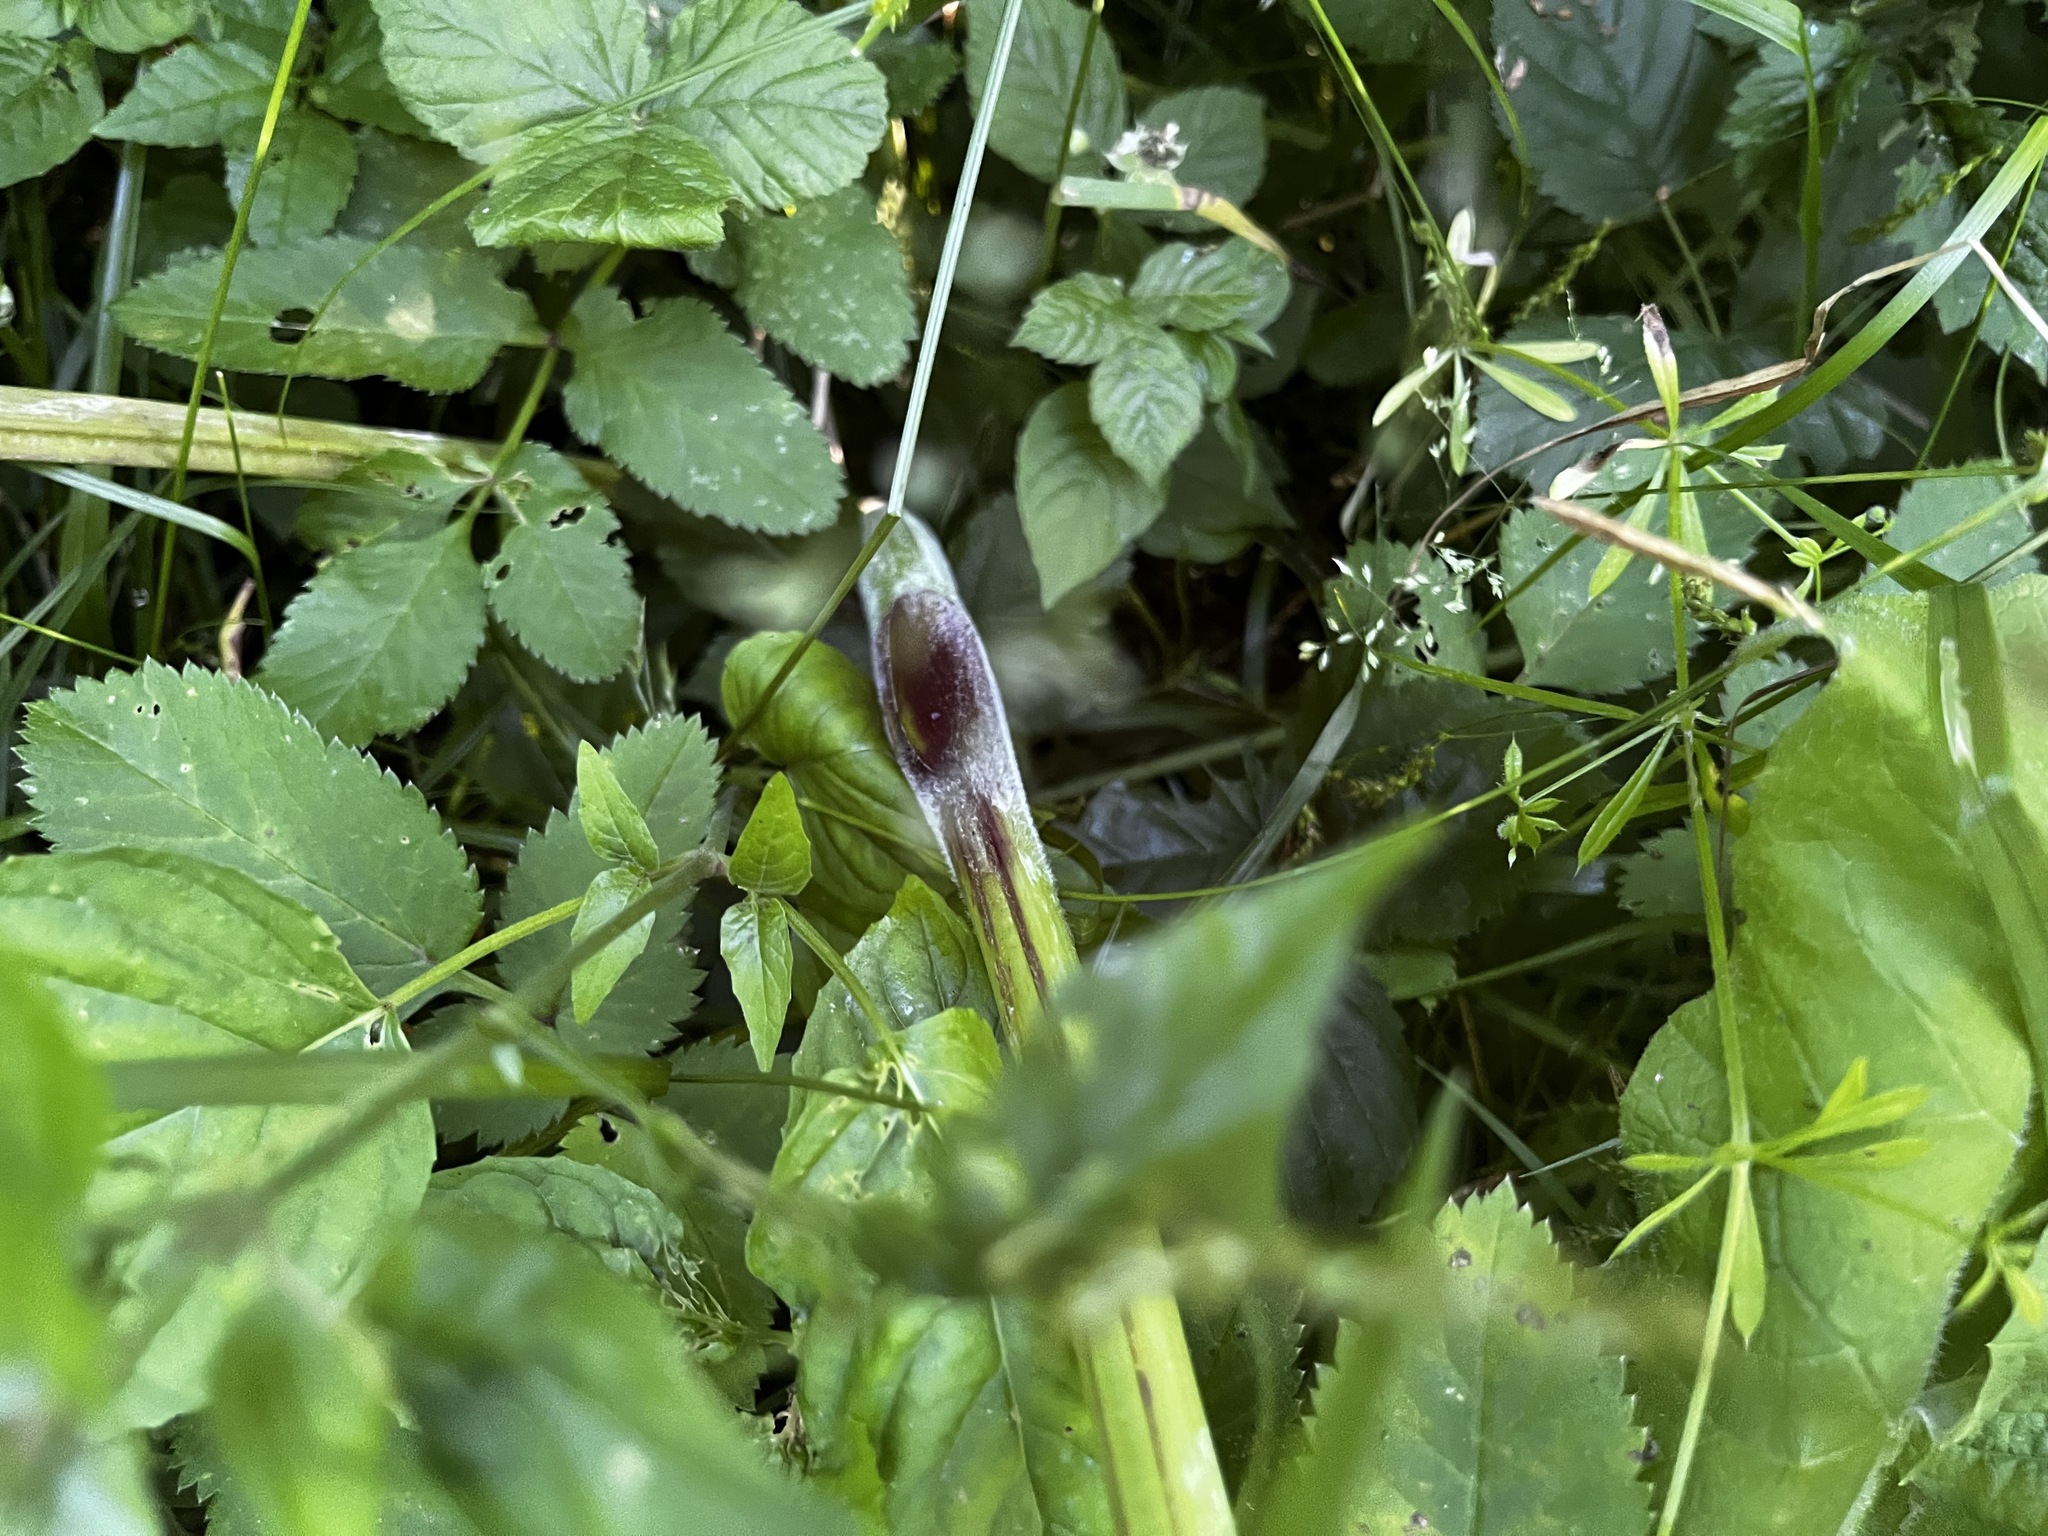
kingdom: Plantae
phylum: Tracheophyta
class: Magnoliopsida
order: Apiales
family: Apiaceae
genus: Angelica
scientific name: Angelica sylvestris
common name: Wild angelica
